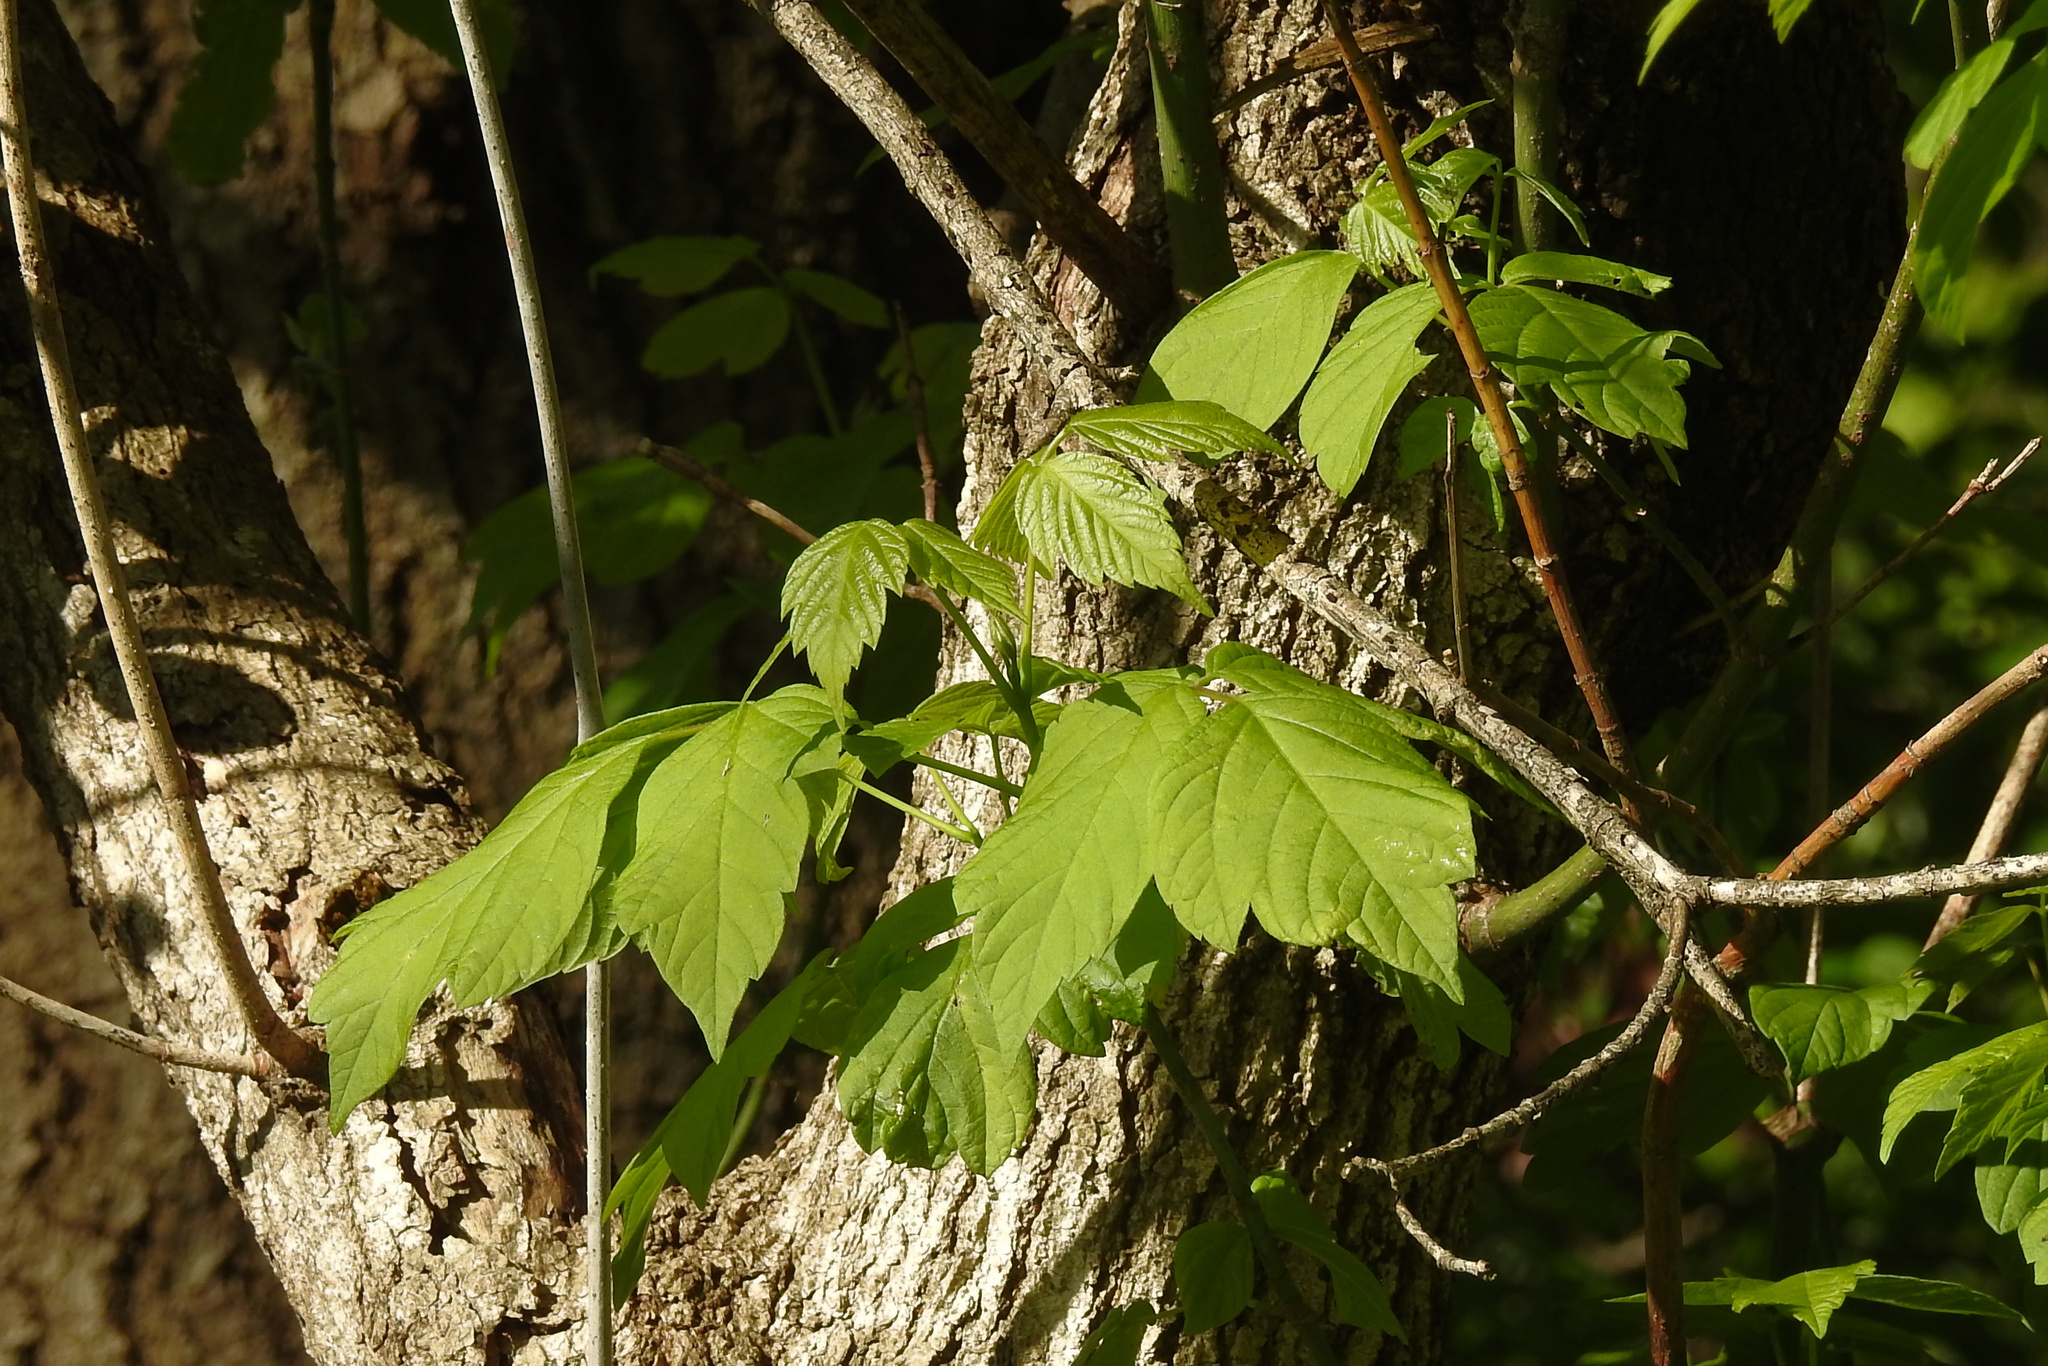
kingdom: Plantae
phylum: Tracheophyta
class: Magnoliopsida
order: Sapindales
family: Sapindaceae
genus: Acer
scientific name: Acer negundo
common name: Ashleaf maple
